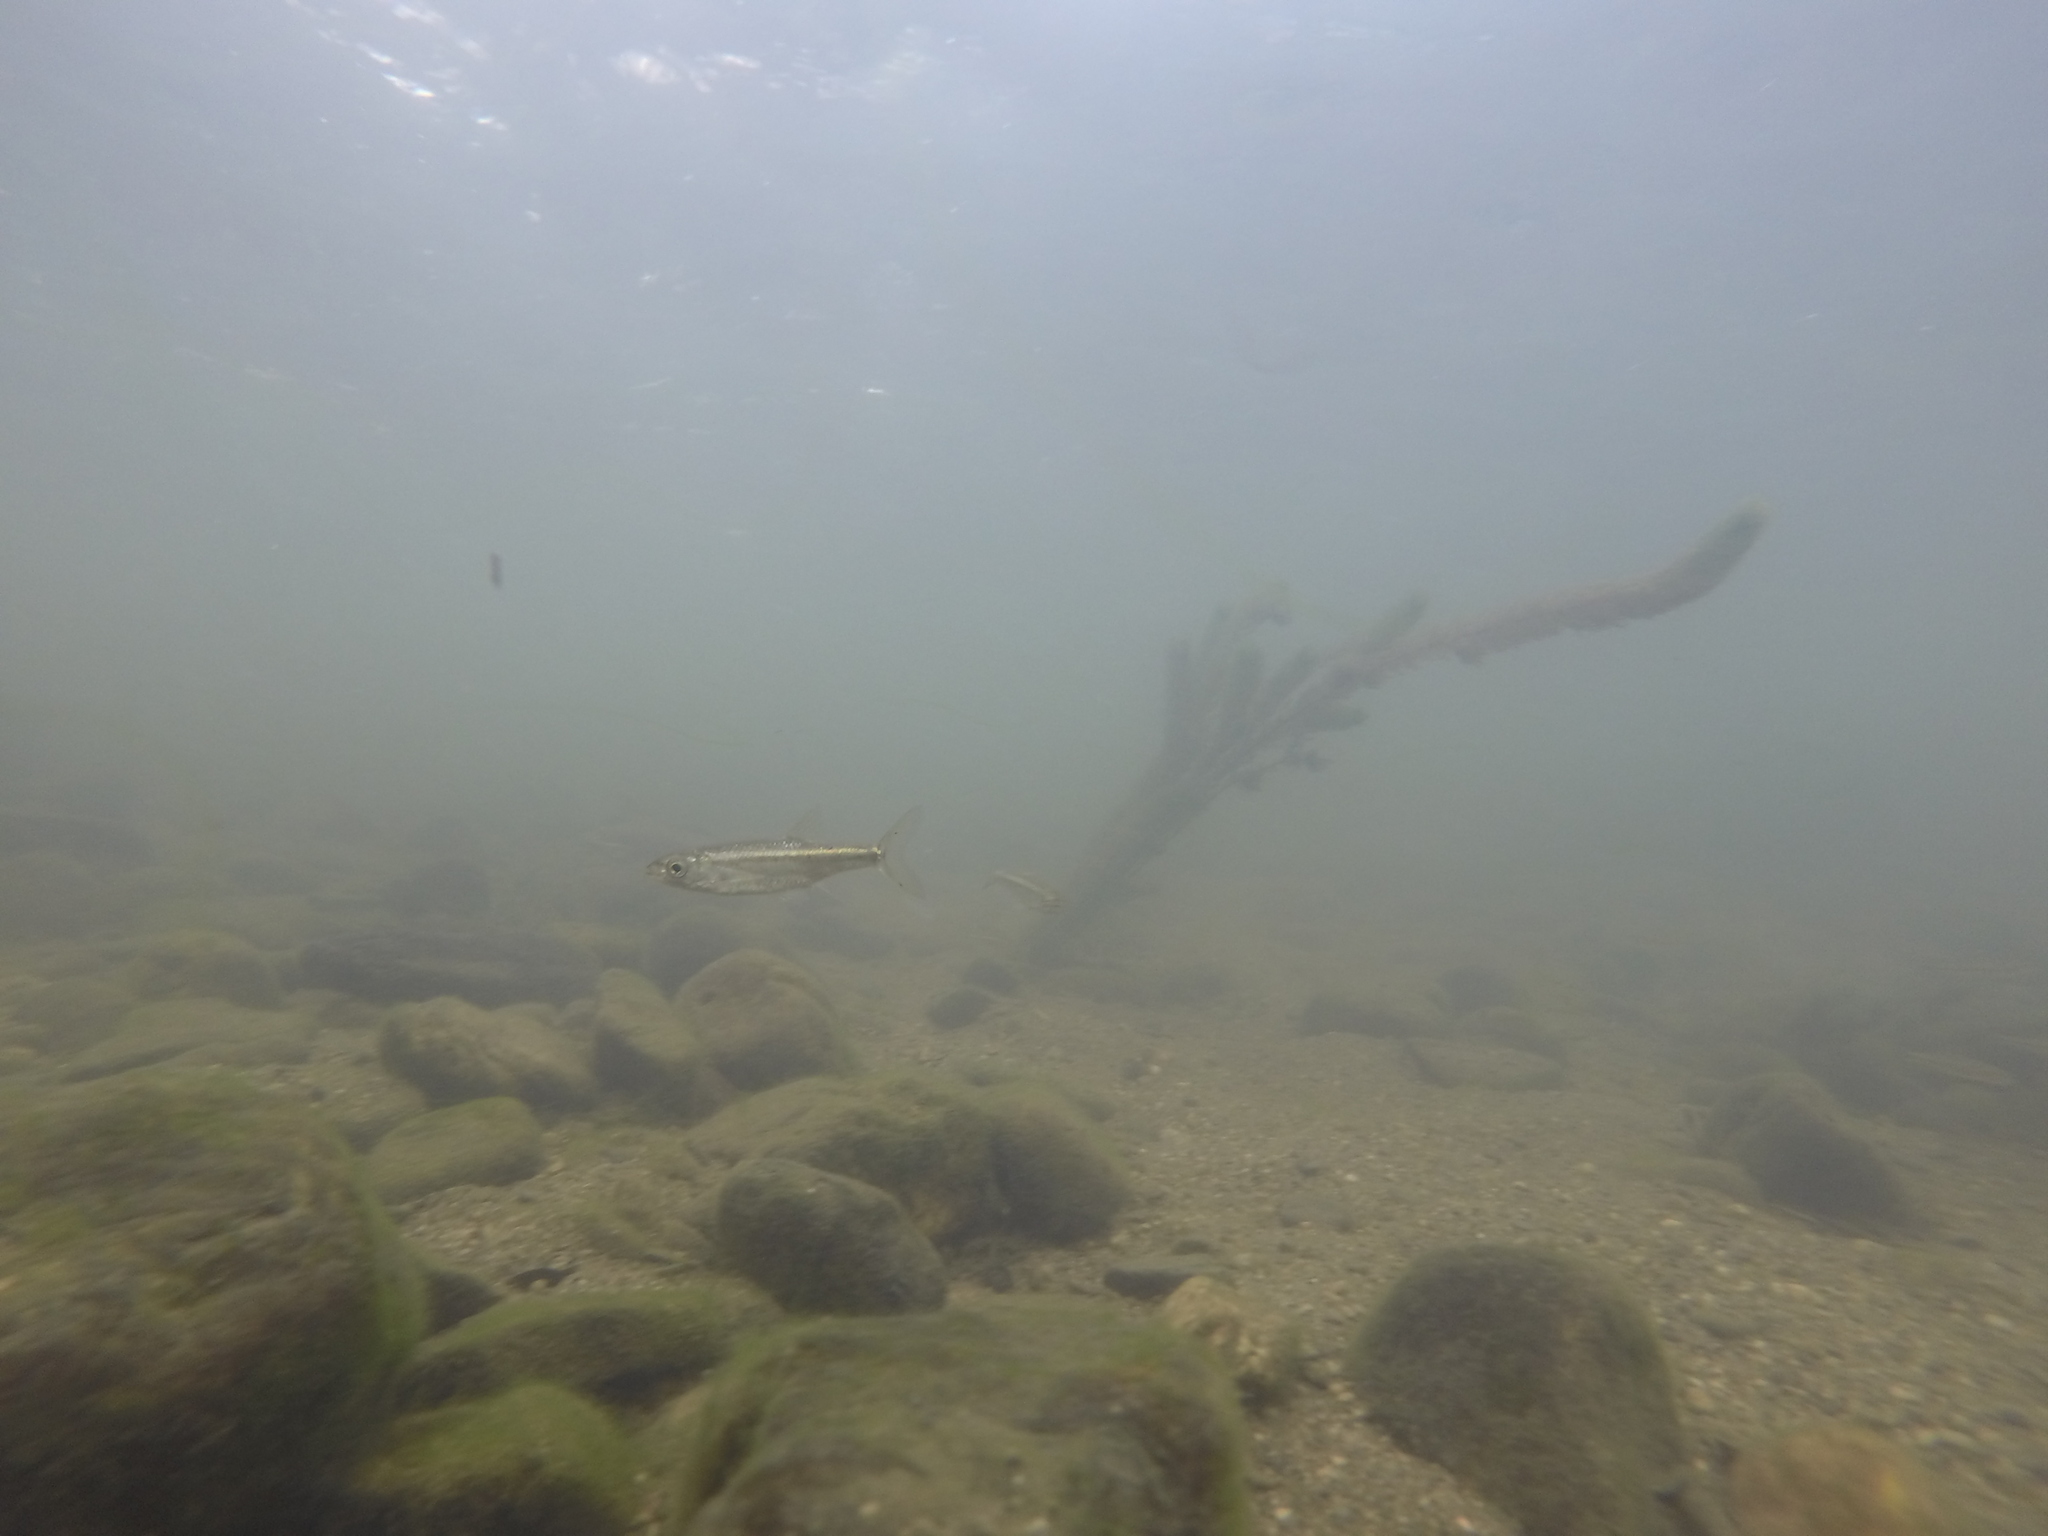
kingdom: Animalia
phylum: Chordata
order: Cypriniformes
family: Cyprinidae
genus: Squalius
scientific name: Squalius alburnoides
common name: Iberian-roach
